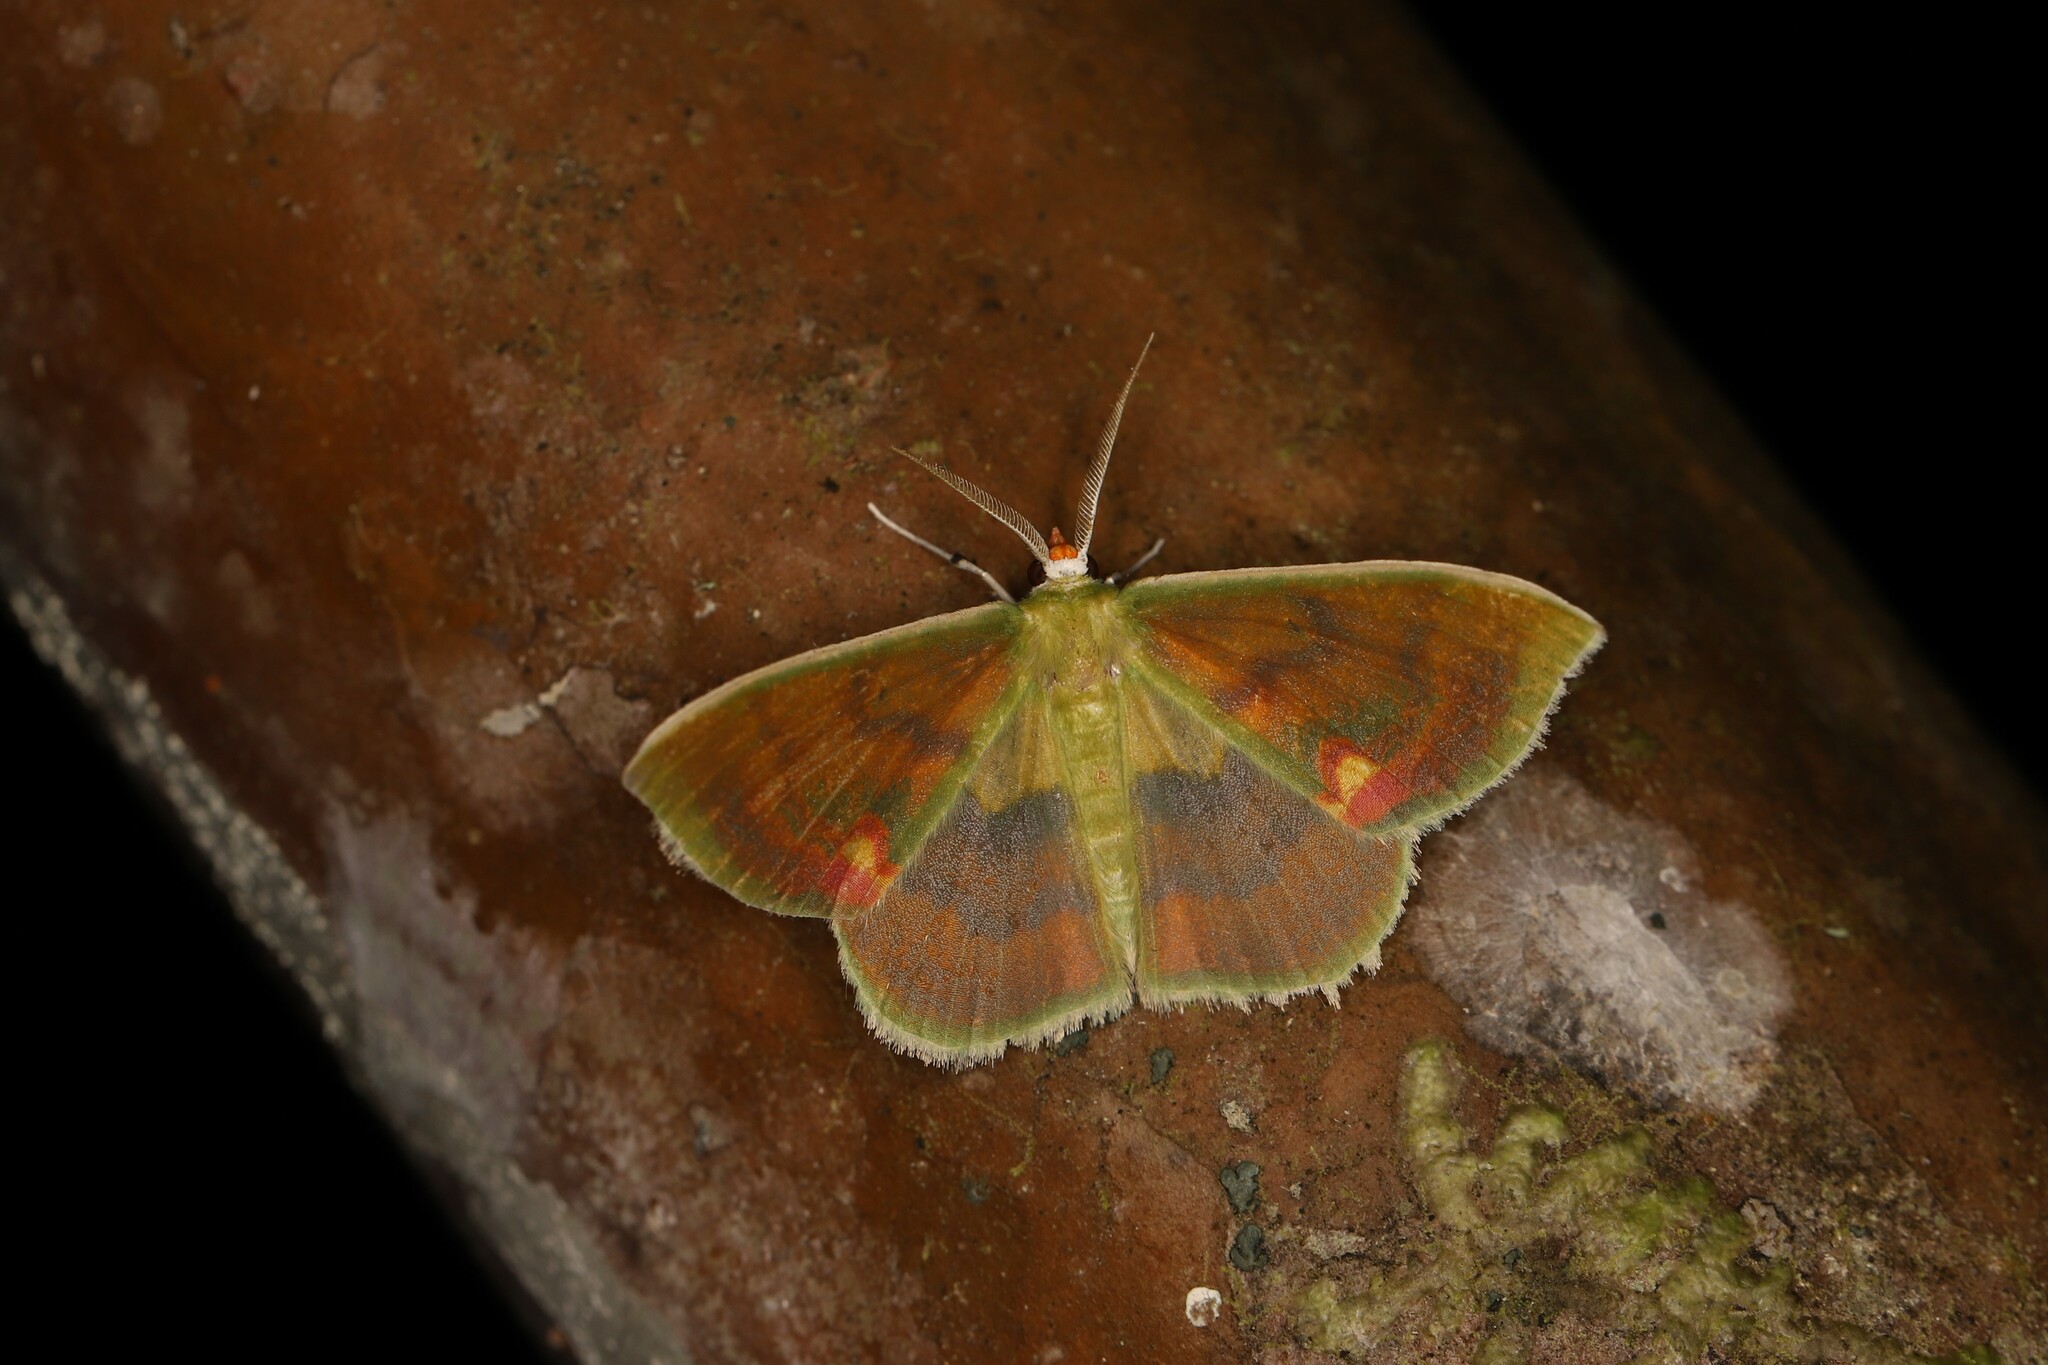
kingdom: Animalia
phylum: Arthropoda
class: Insecta
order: Lepidoptera
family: Geometridae
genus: Rhodochlora
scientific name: Rhodochlora niepelti
